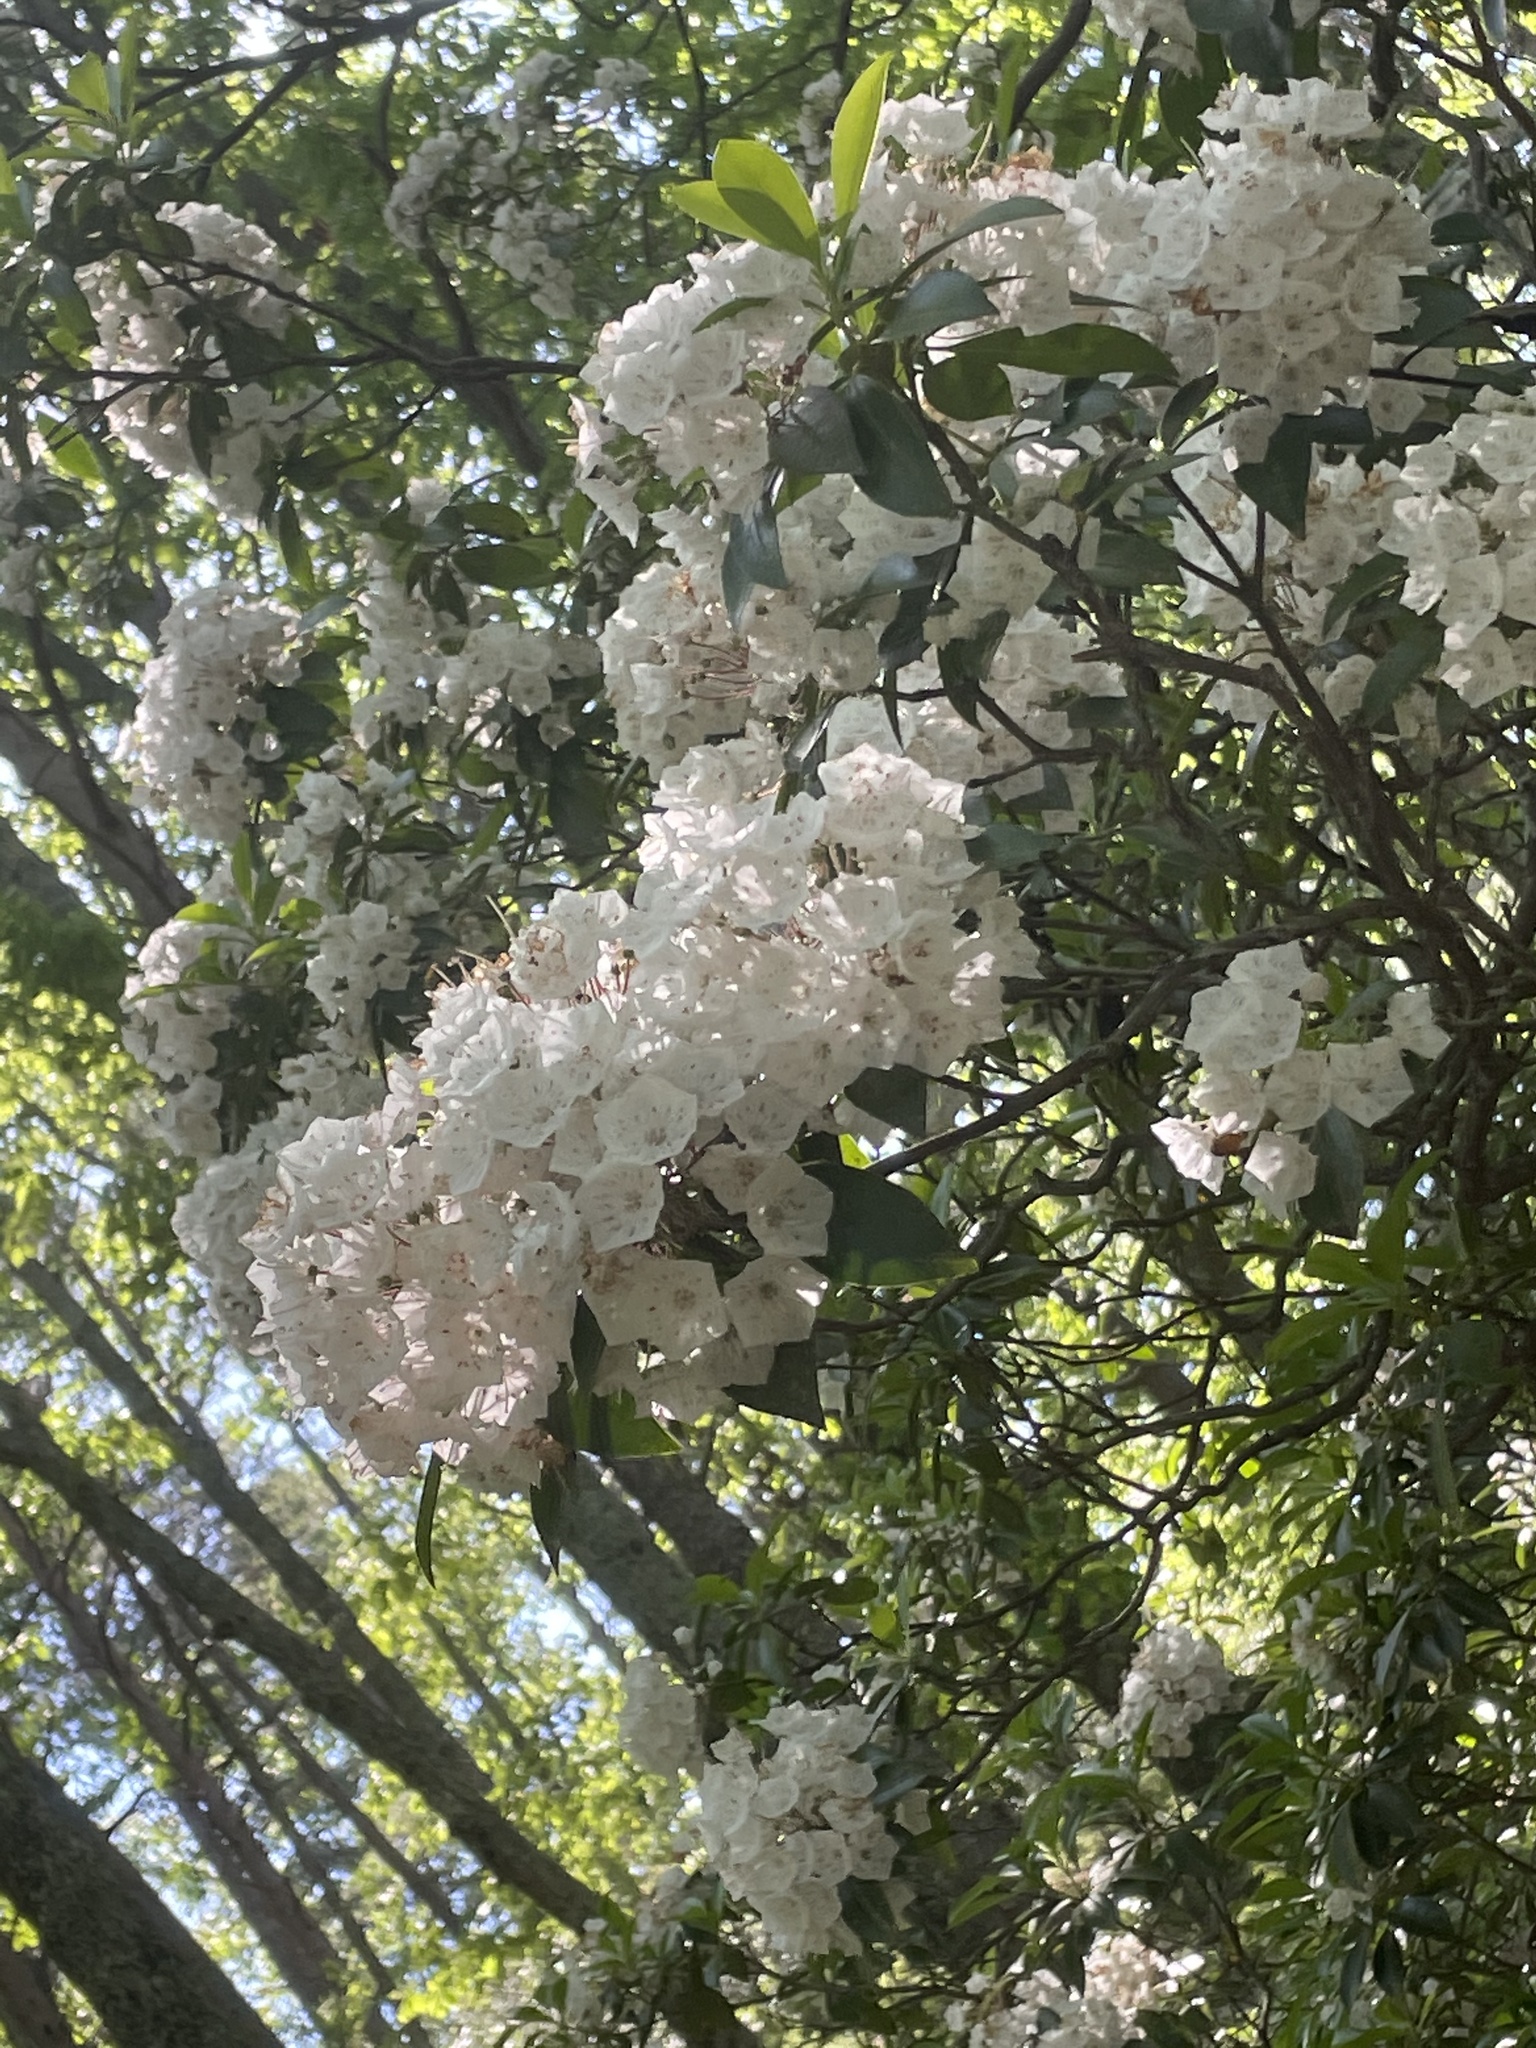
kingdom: Plantae
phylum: Tracheophyta
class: Magnoliopsida
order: Ericales
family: Ericaceae
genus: Kalmia
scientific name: Kalmia latifolia
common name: Mountain-laurel
